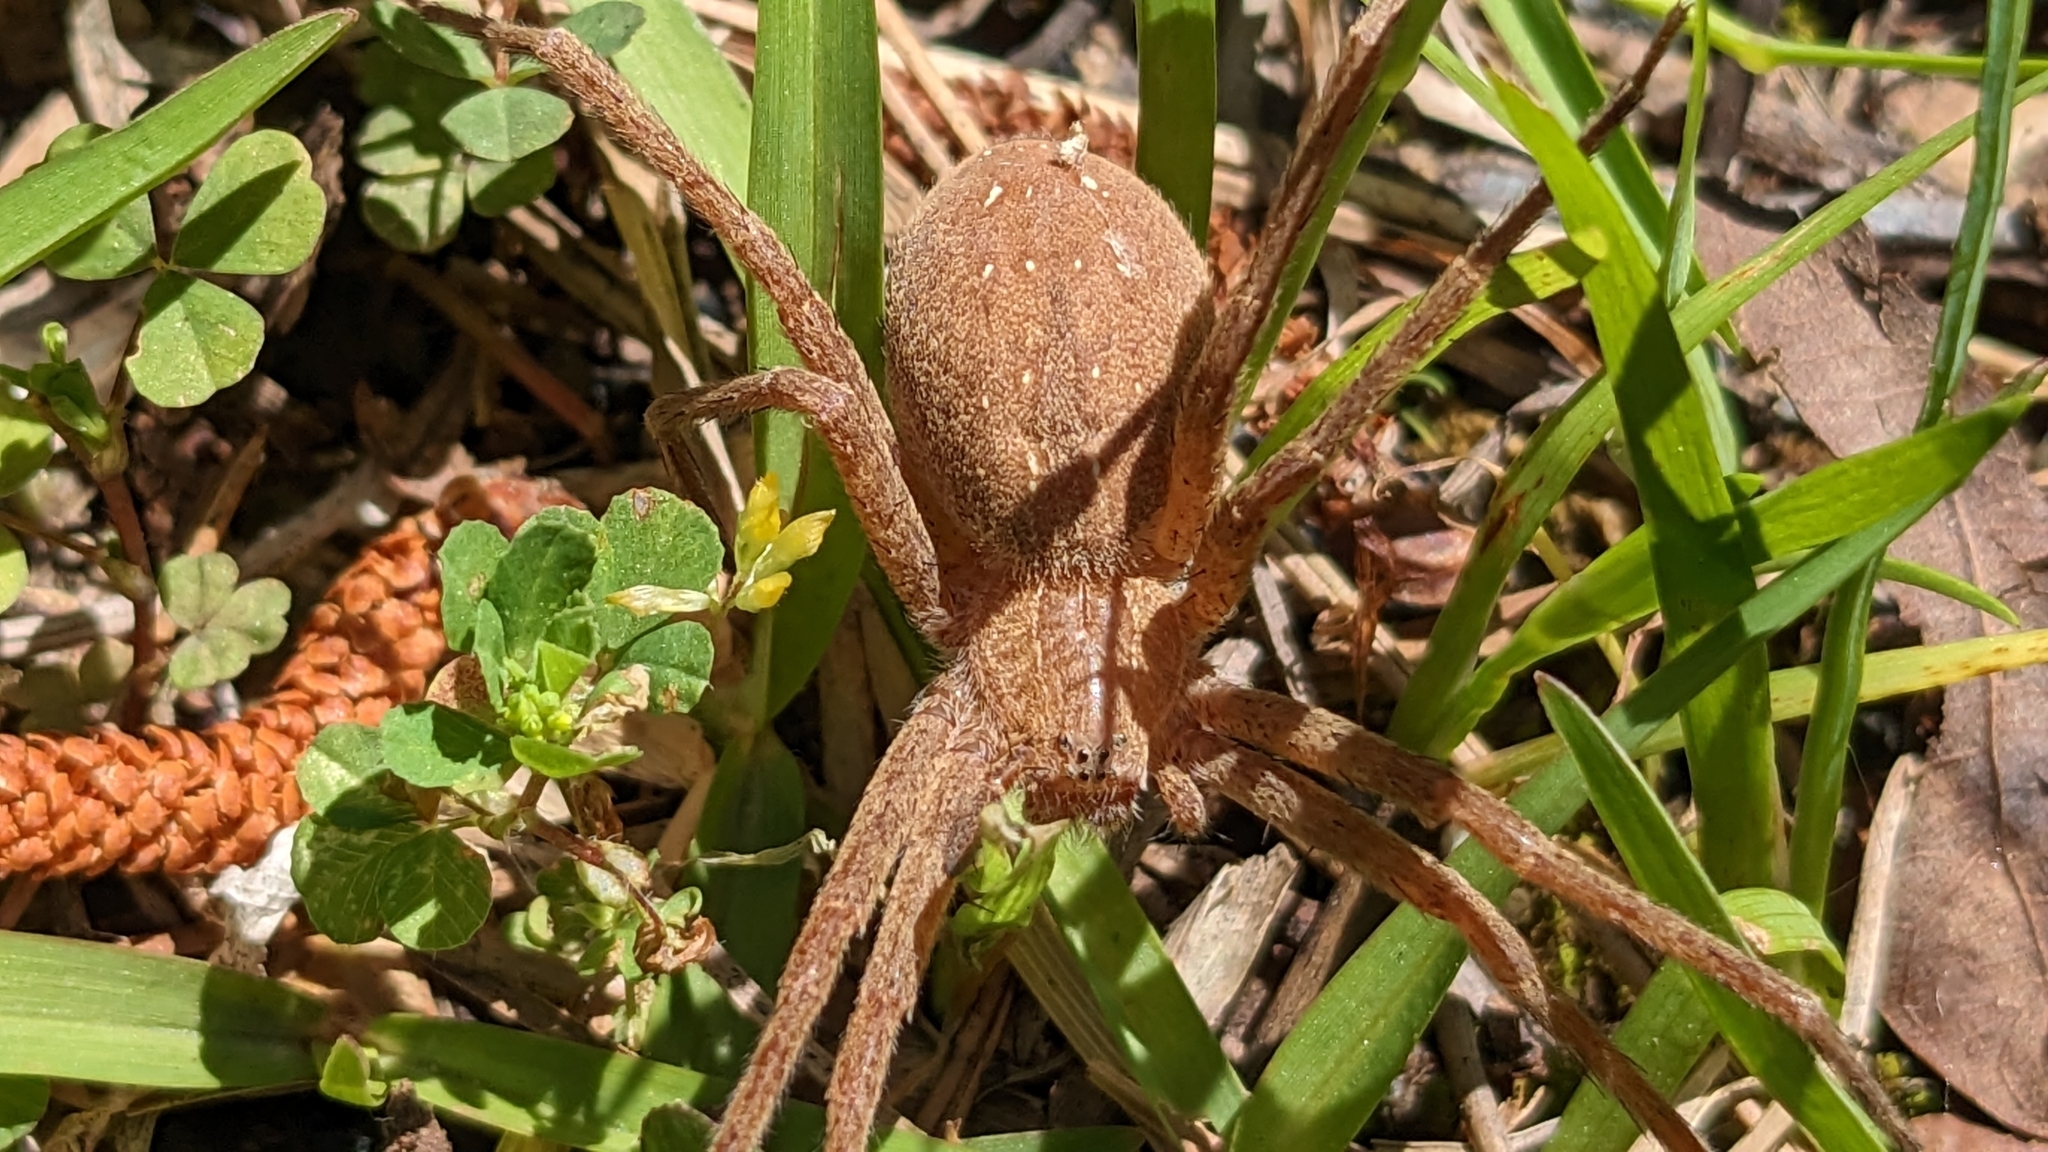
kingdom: Animalia
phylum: Arthropoda
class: Arachnida
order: Araneae
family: Pisauridae
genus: Pisaurina
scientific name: Pisaurina mira
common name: American nursery web spider
